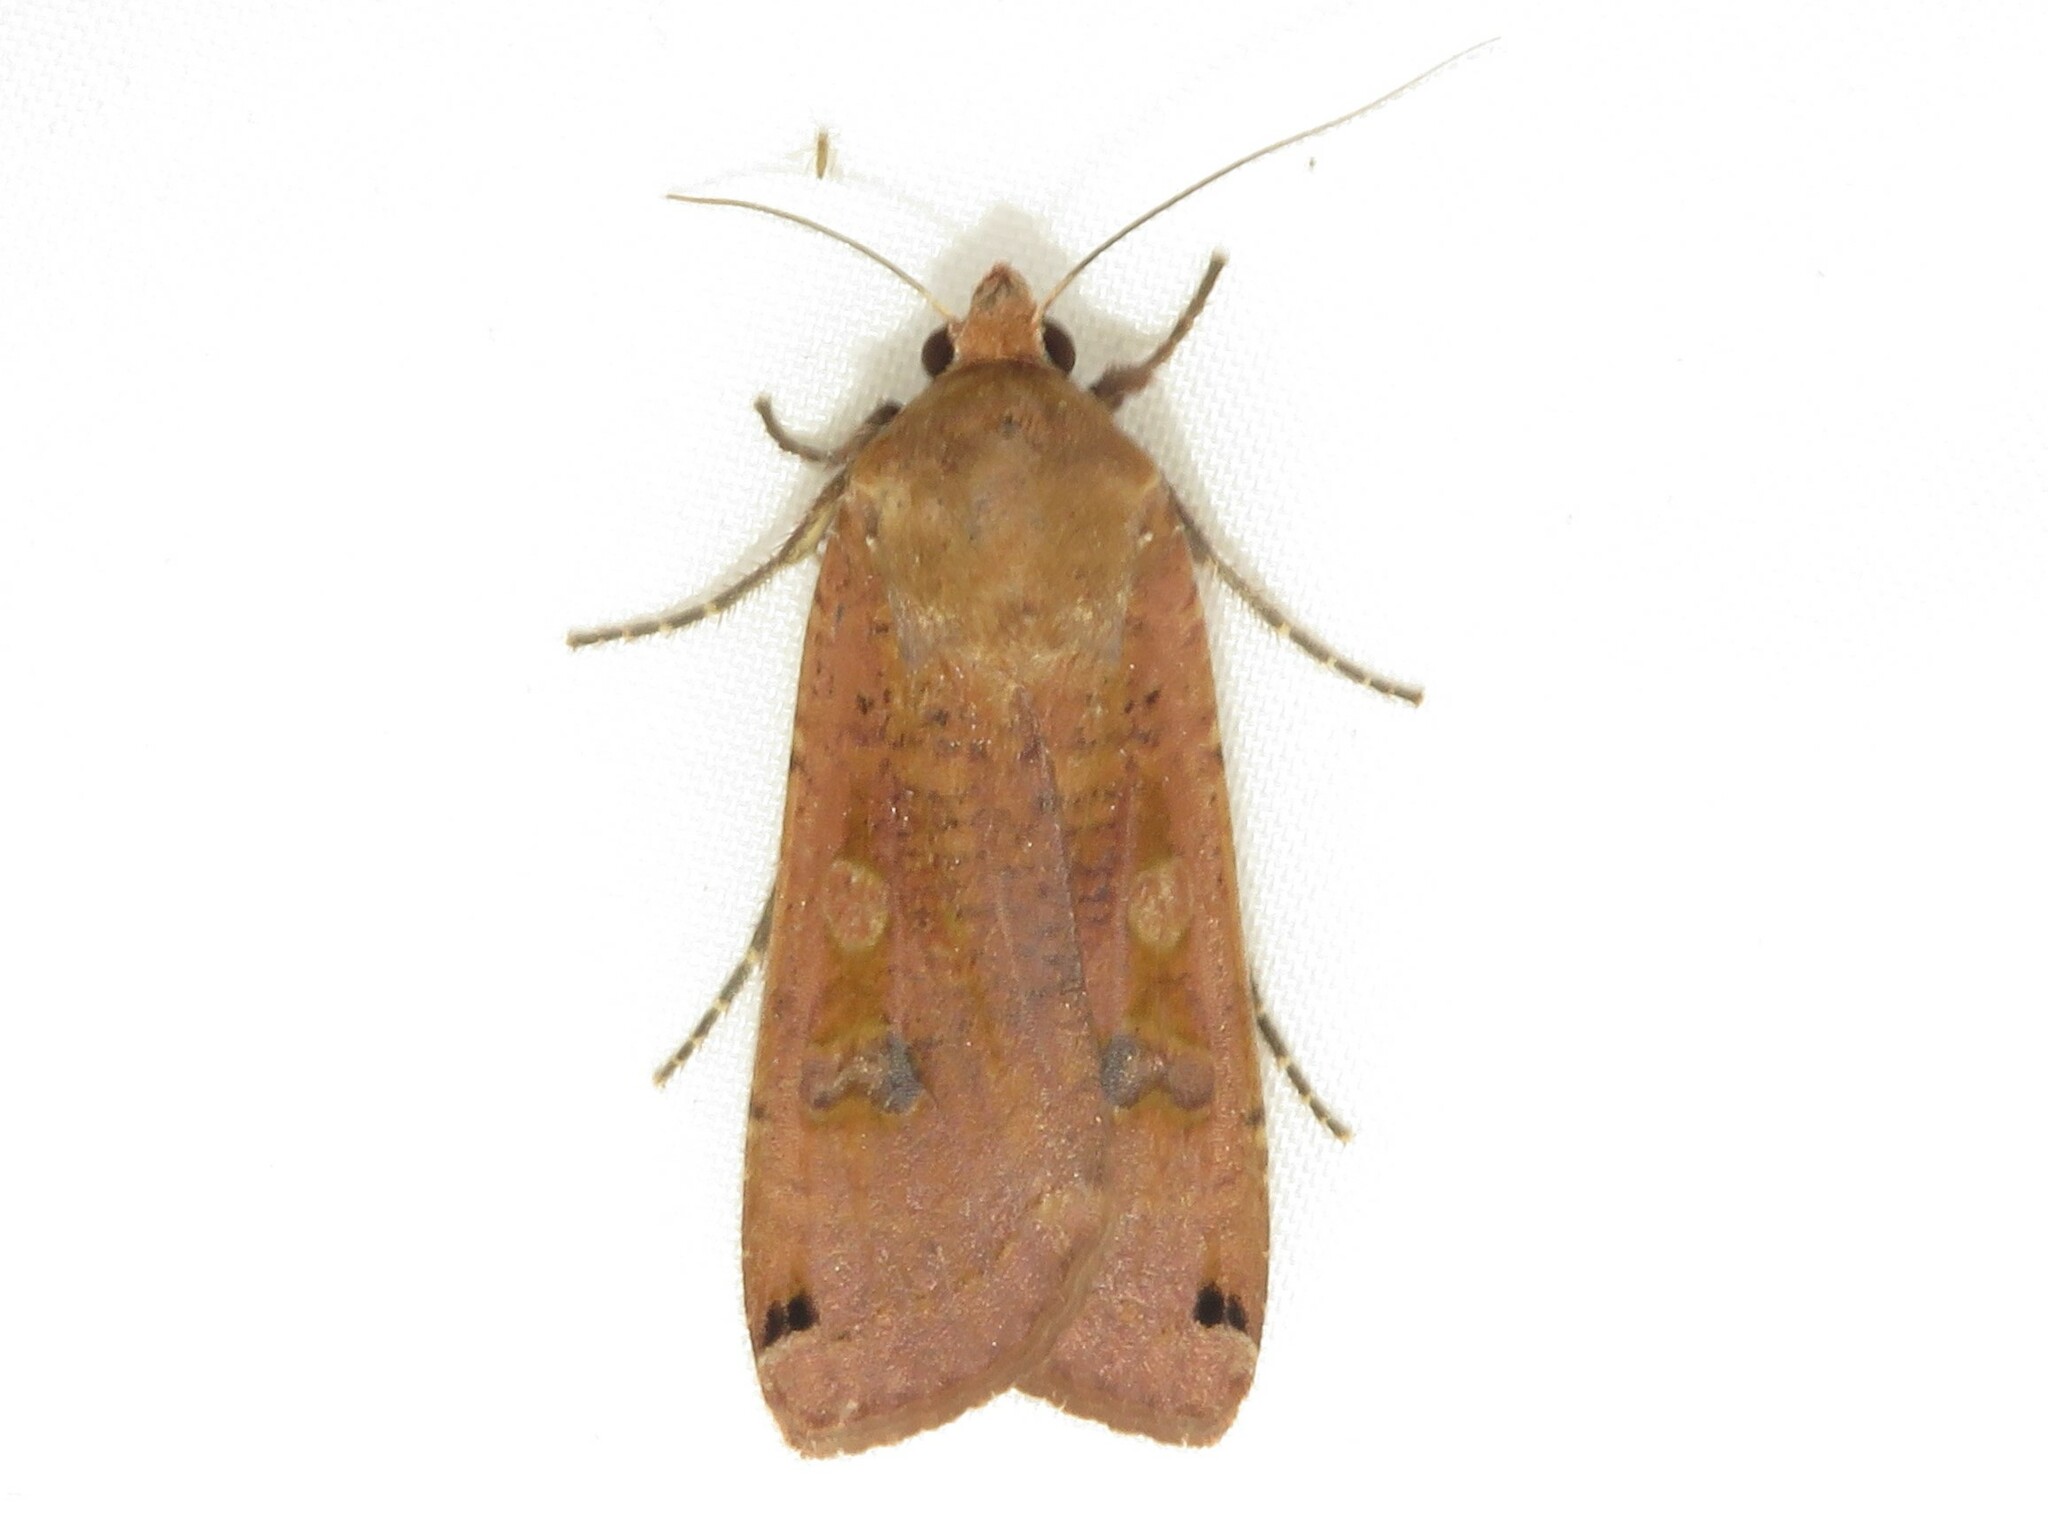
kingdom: Animalia
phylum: Arthropoda
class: Insecta
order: Lepidoptera
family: Noctuidae
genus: Noctua
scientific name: Noctua pronuba
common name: Large yellow underwing
